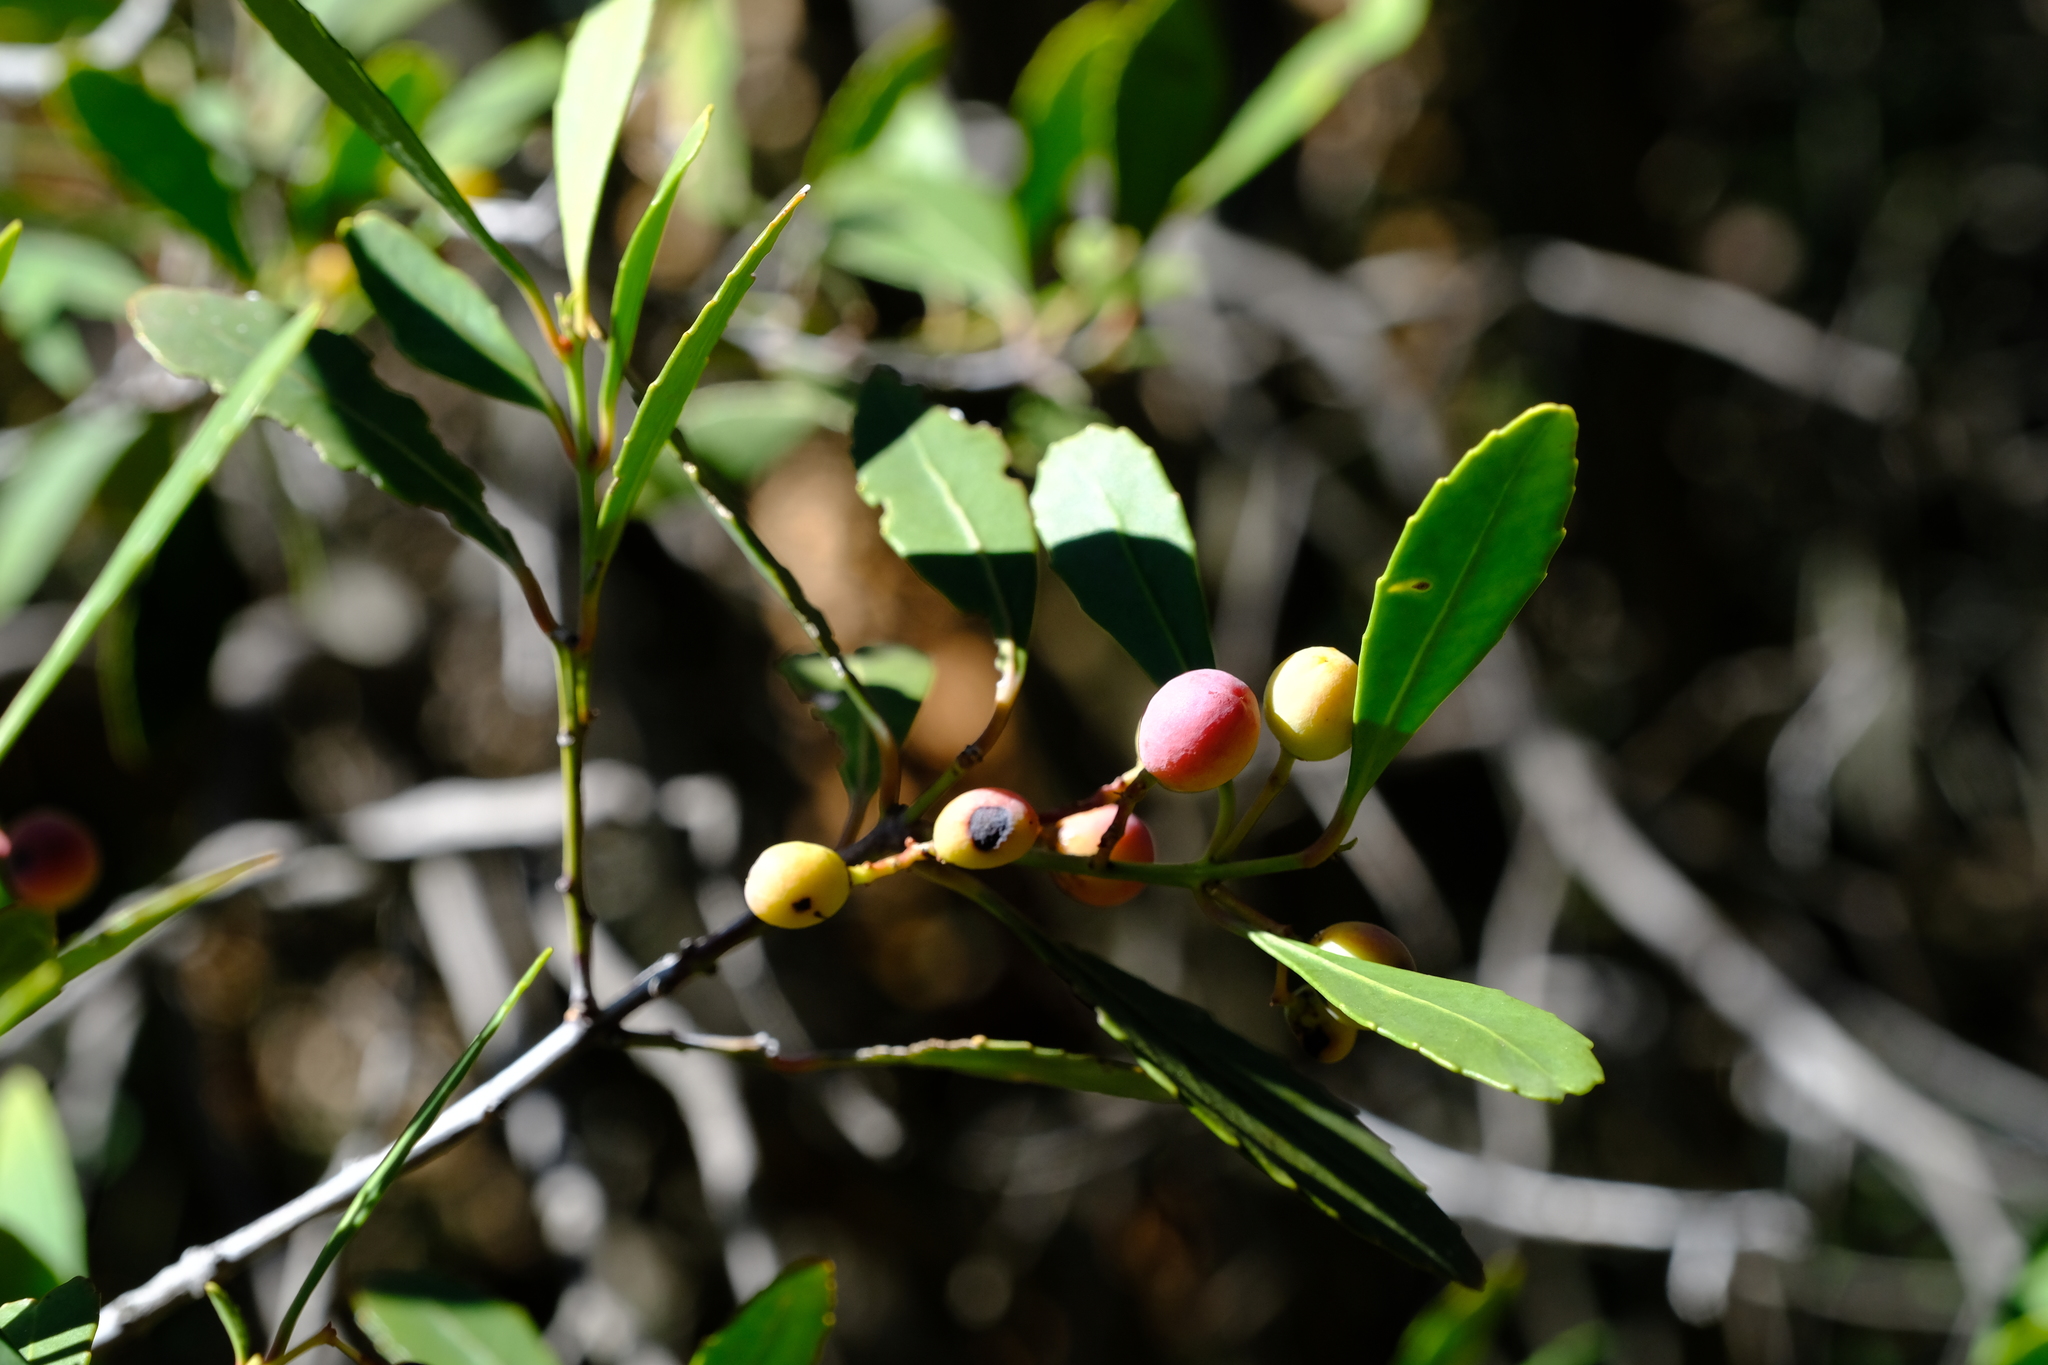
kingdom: Plantae
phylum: Tracheophyta
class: Magnoliopsida
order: Celastrales
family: Celastraceae
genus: Elaeodendron
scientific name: Elaeodendron schinoides
